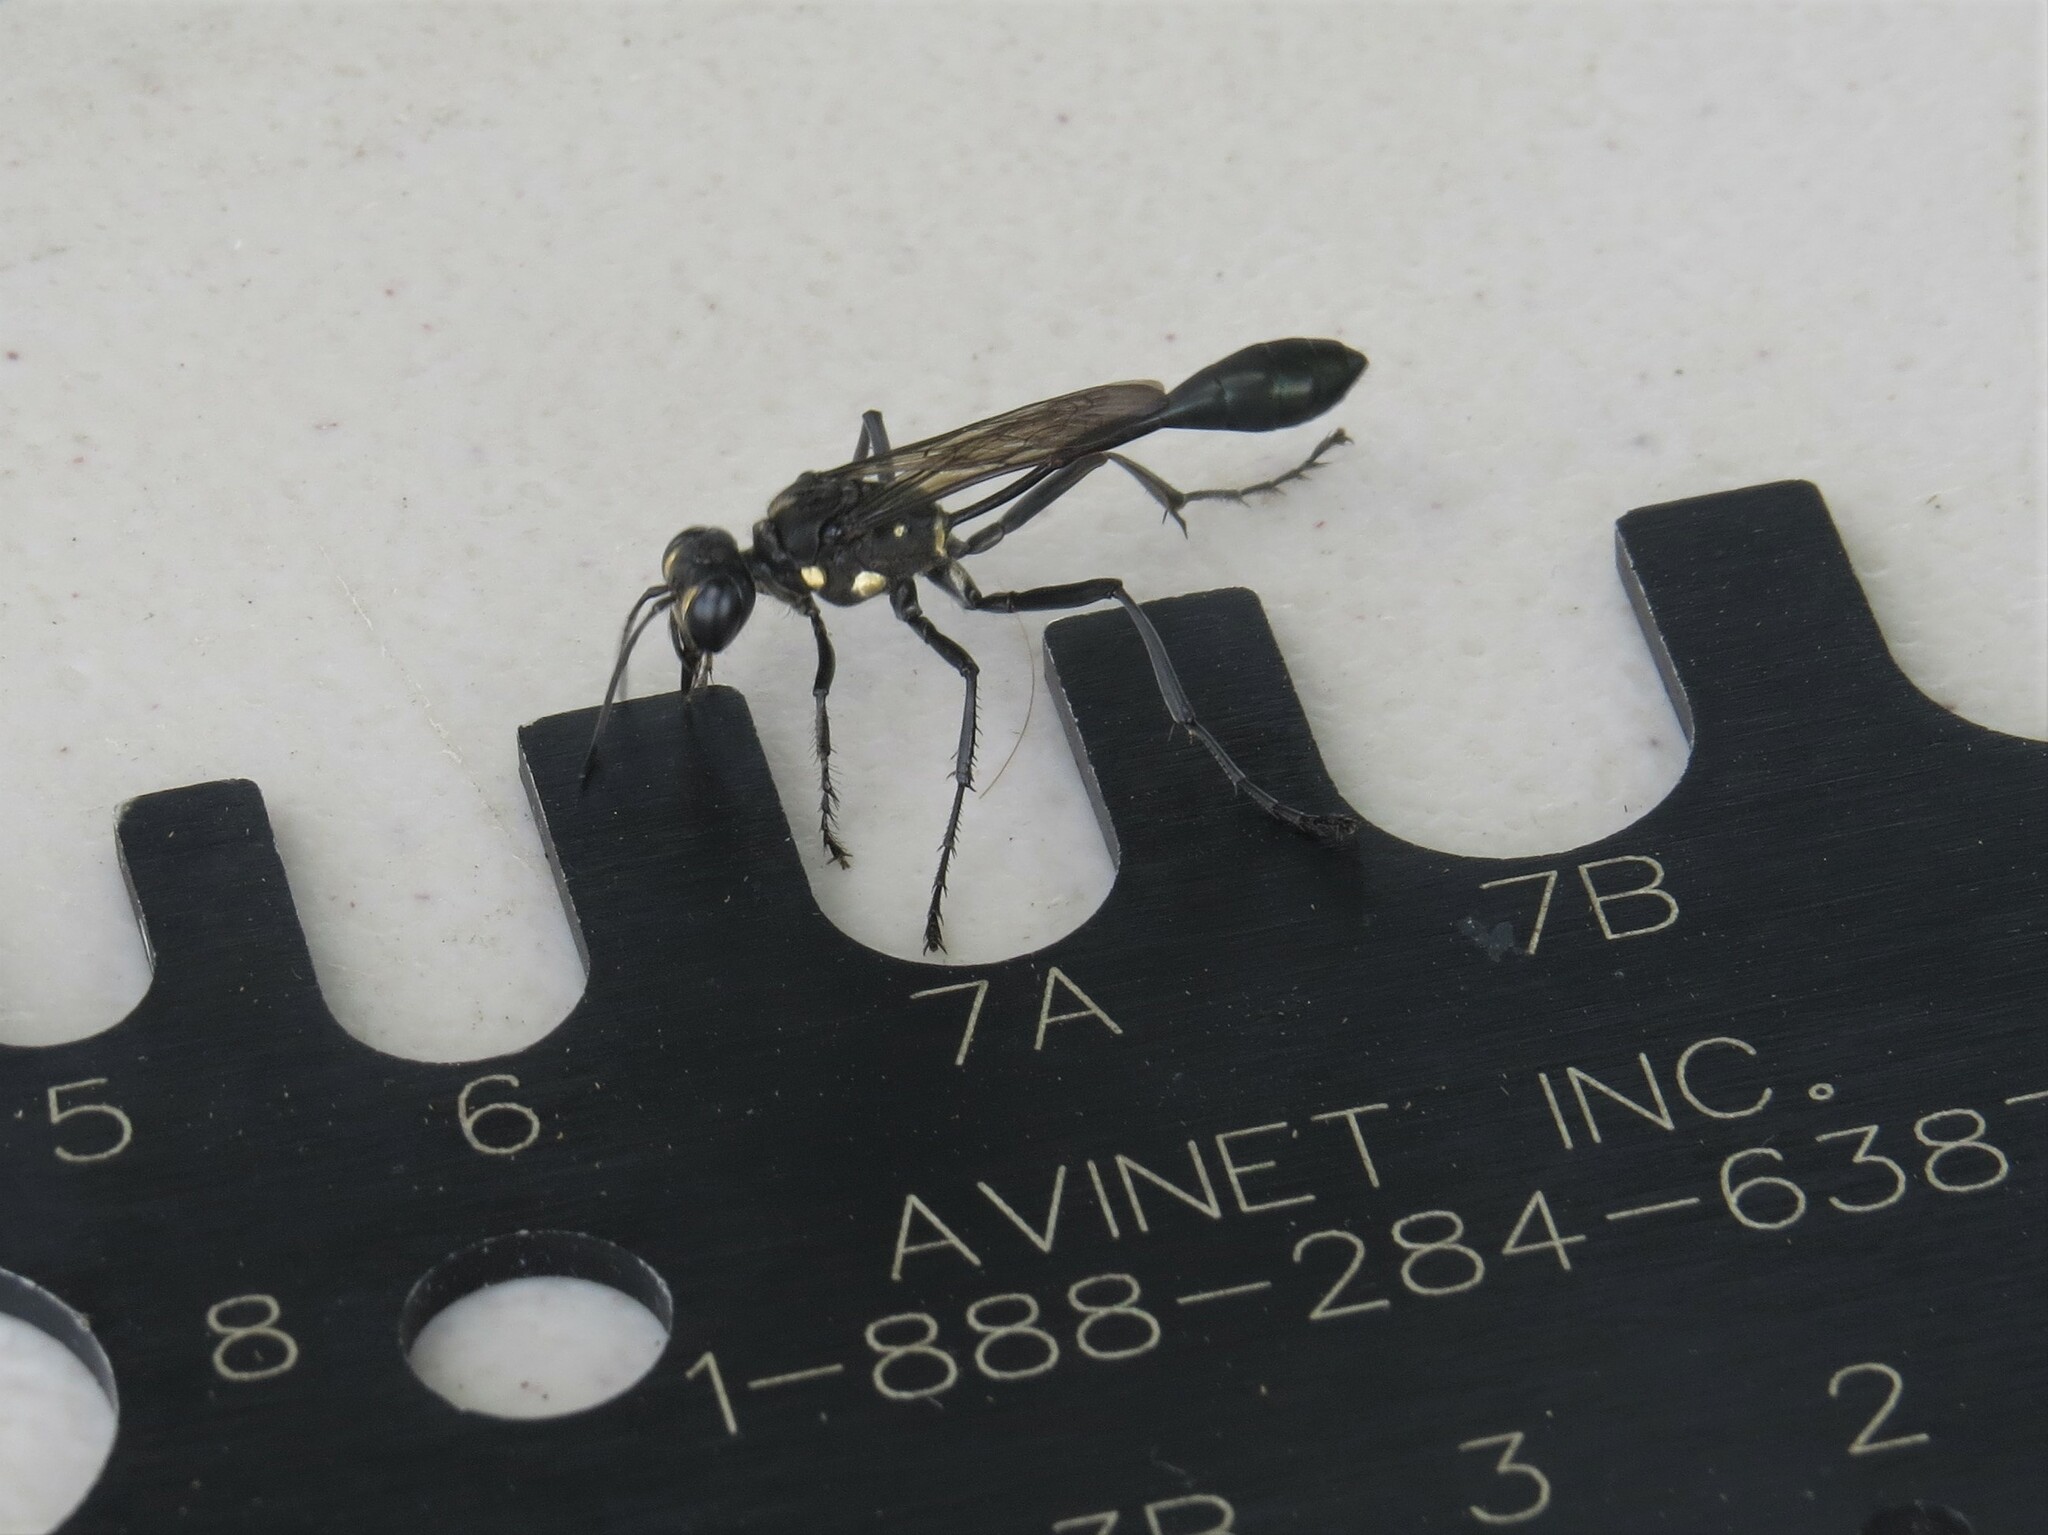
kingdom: Animalia
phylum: Arthropoda
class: Insecta
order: Hymenoptera
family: Sphecidae
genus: Eremnophila
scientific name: Eremnophila aureonotata
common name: Gold-marked thread-waisted wasp
